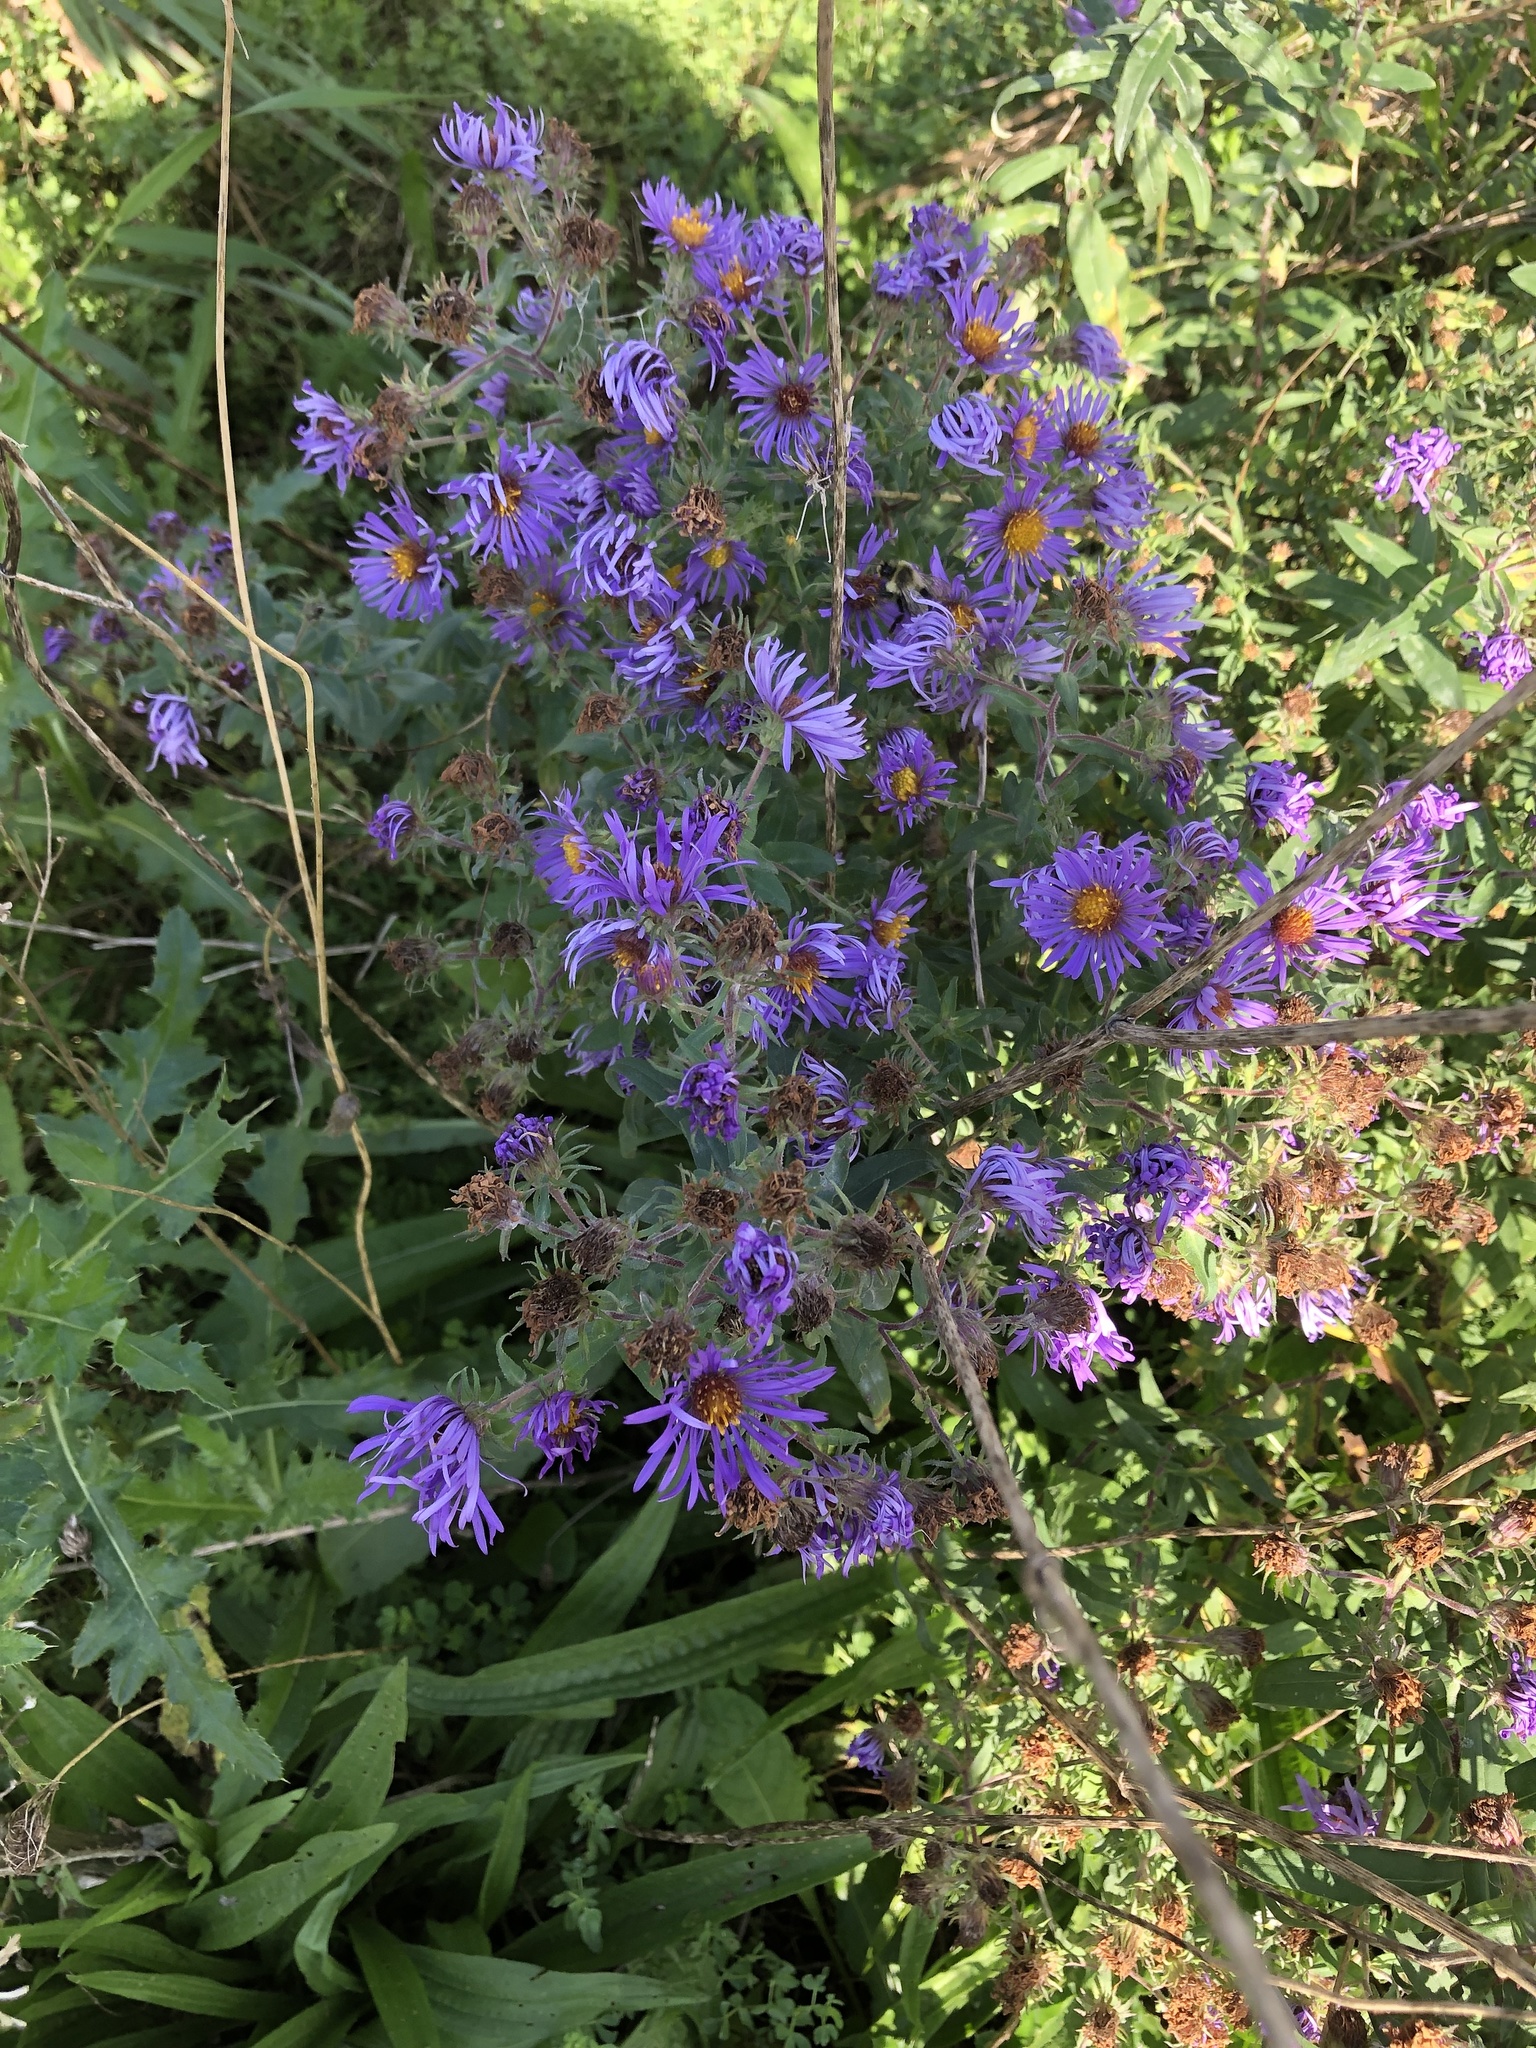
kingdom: Plantae
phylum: Tracheophyta
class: Magnoliopsida
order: Asterales
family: Asteraceae
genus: Symphyotrichum
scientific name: Symphyotrichum novae-angliae
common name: Michaelmas daisy
